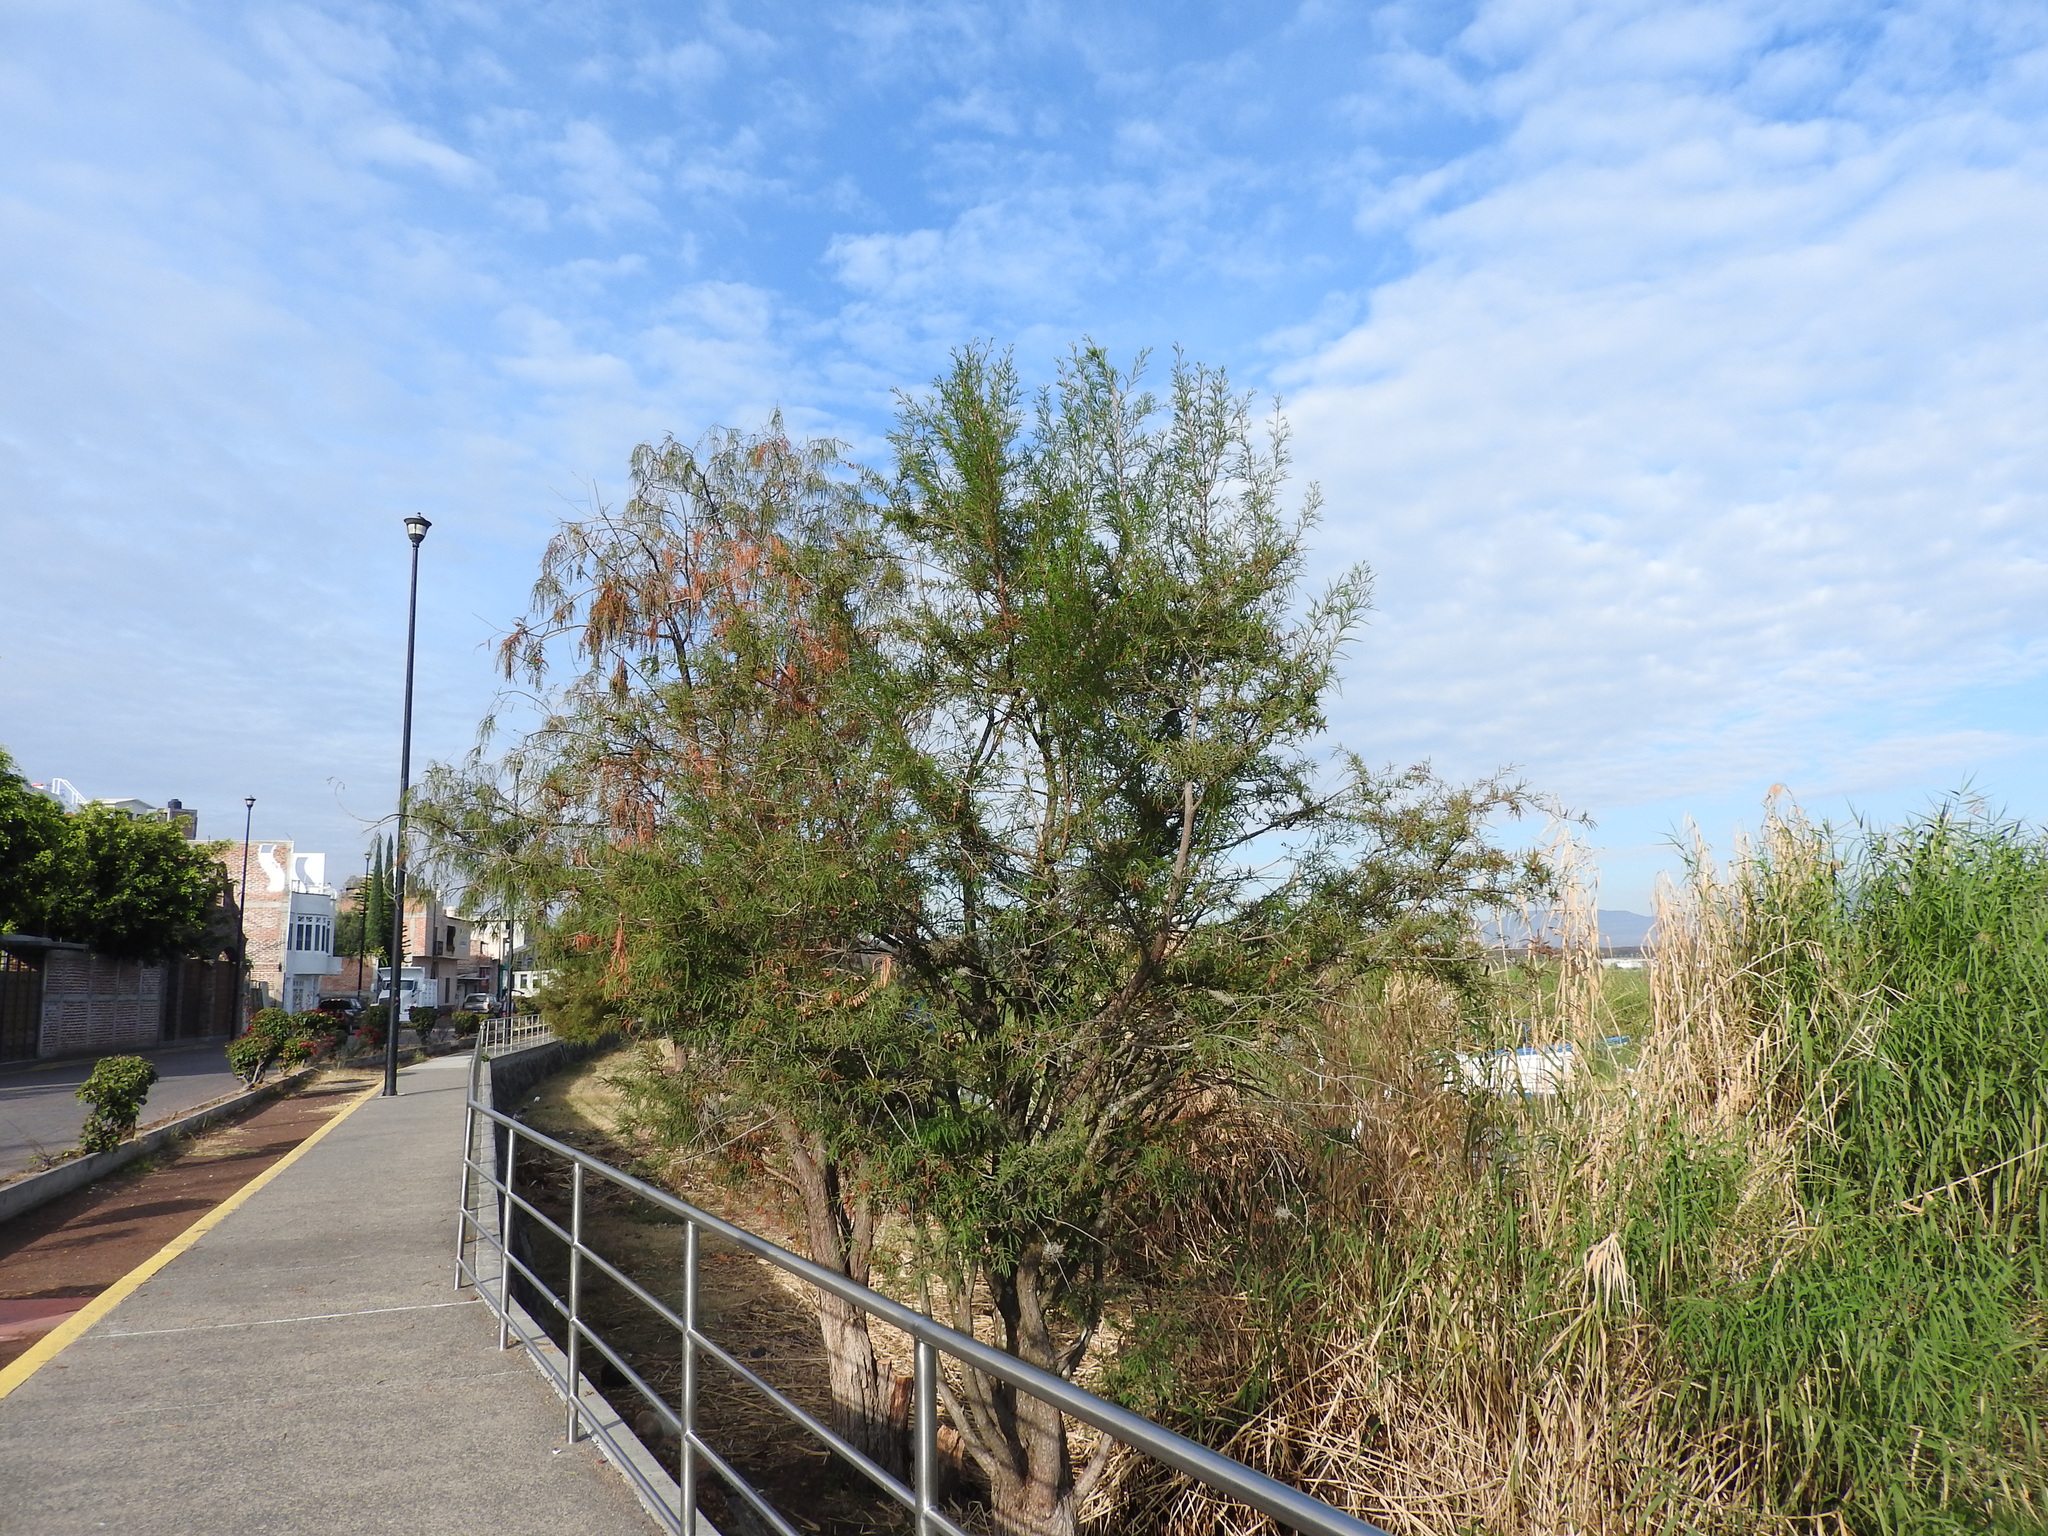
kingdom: Plantae
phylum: Tracheophyta
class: Pinopsida
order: Pinales
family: Cupressaceae
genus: Taxodium
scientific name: Taxodium mucronatum
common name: Montezume bald cypress
